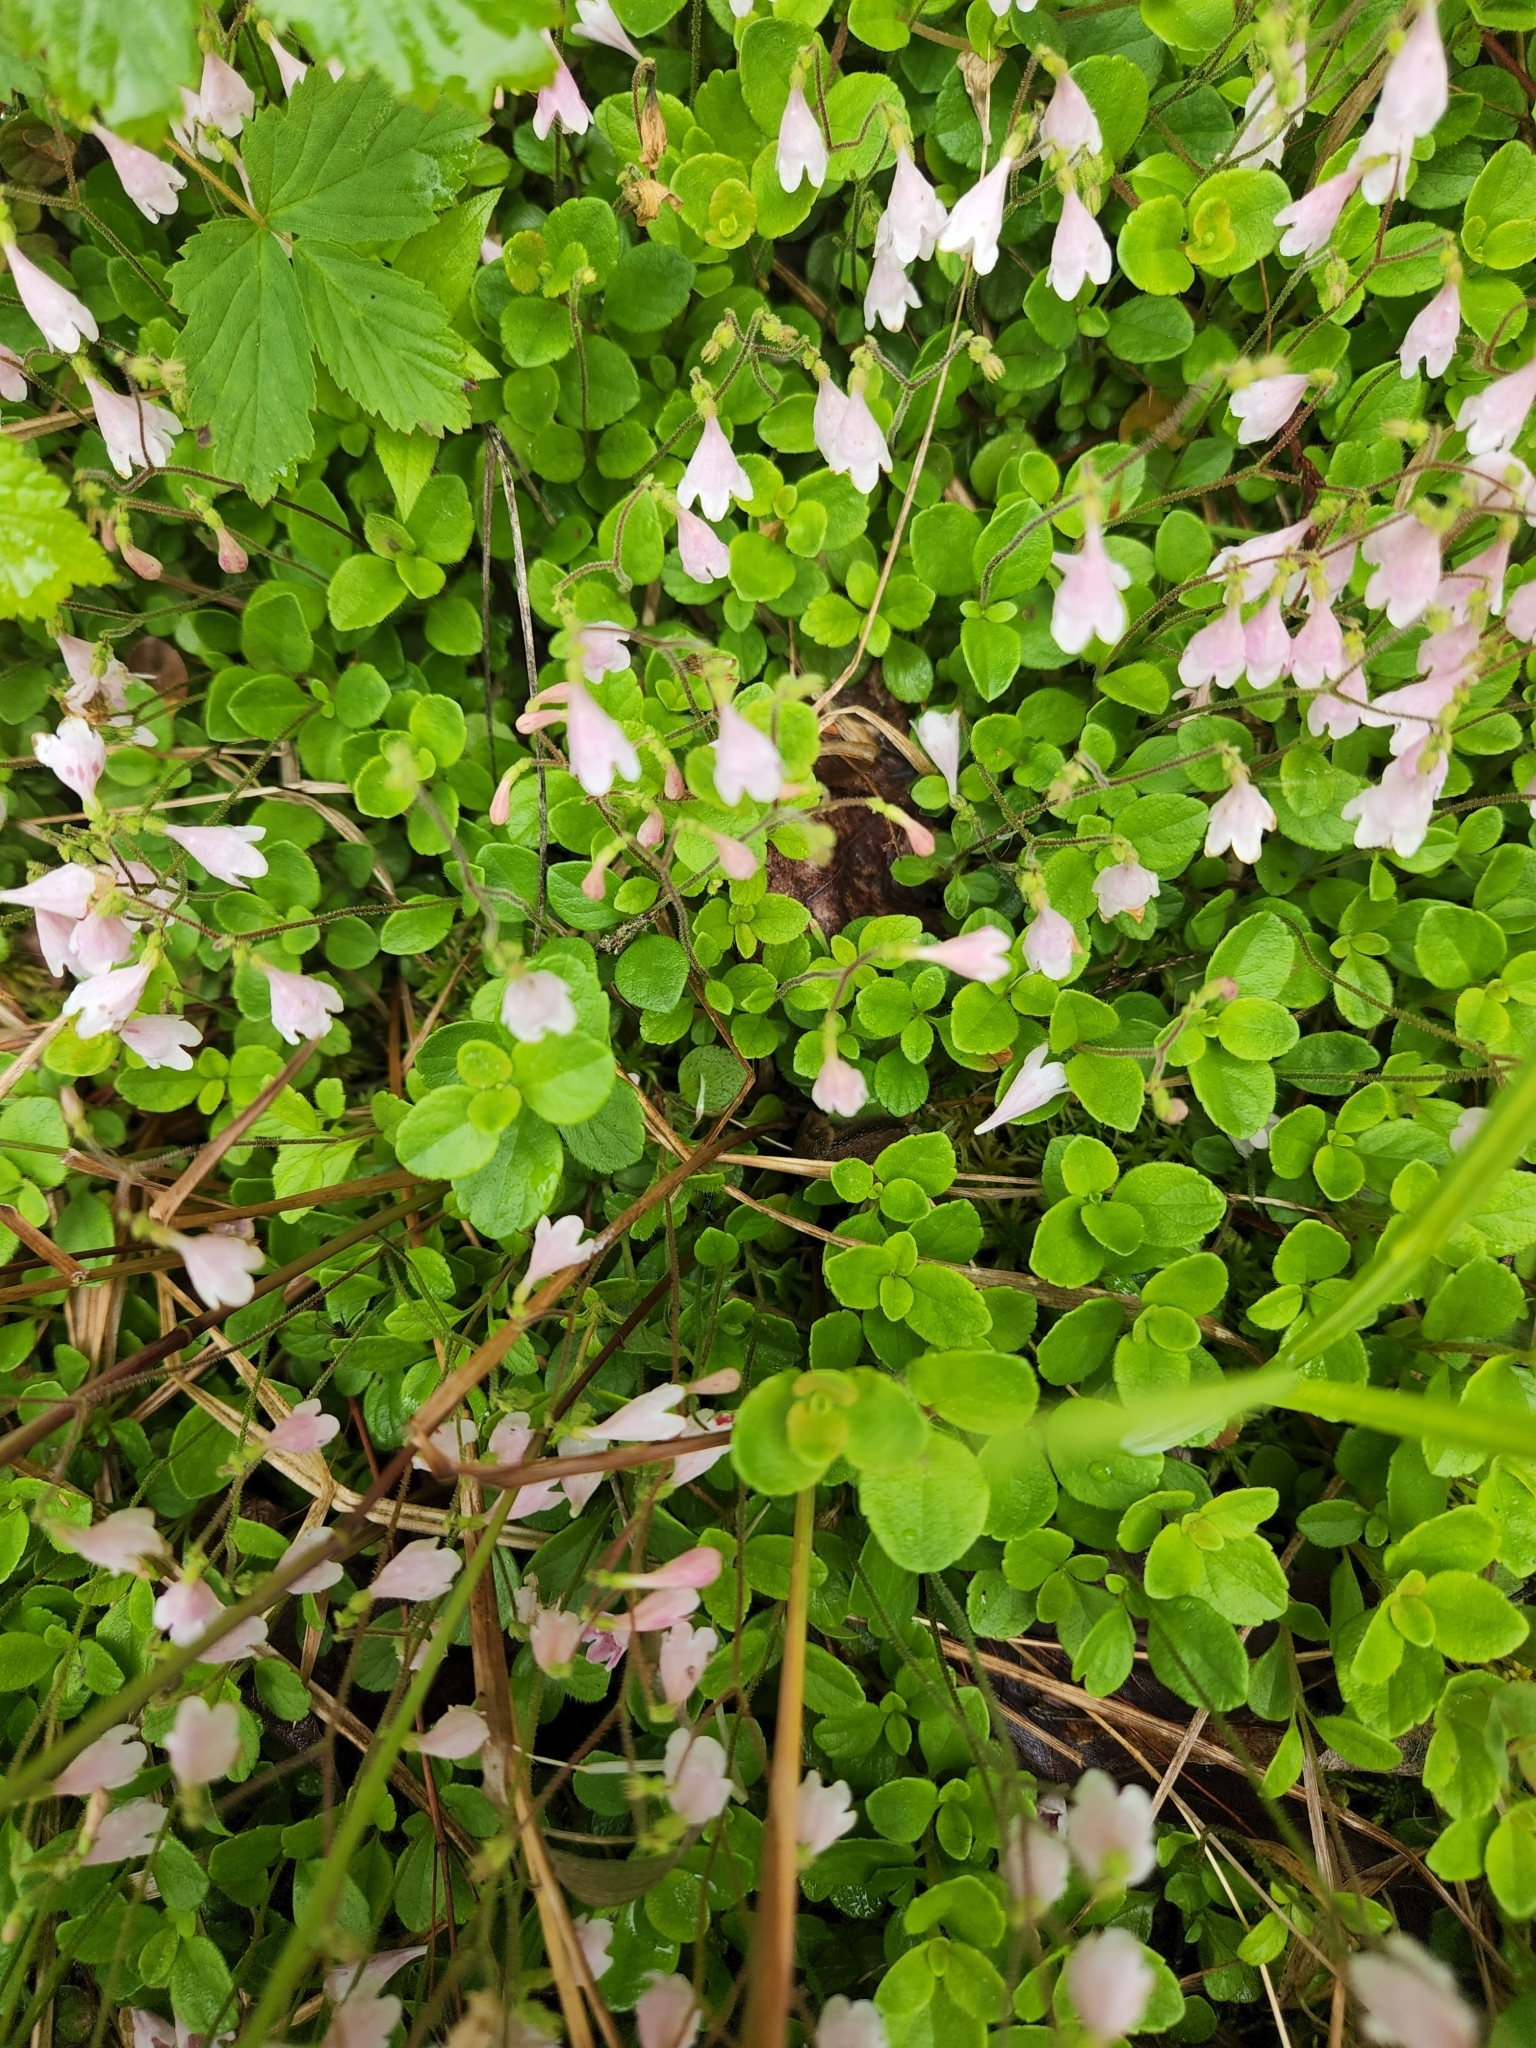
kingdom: Plantae
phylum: Tracheophyta
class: Magnoliopsida
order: Dipsacales
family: Caprifoliaceae
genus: Linnaea
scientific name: Linnaea borealis
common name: Twinflower
